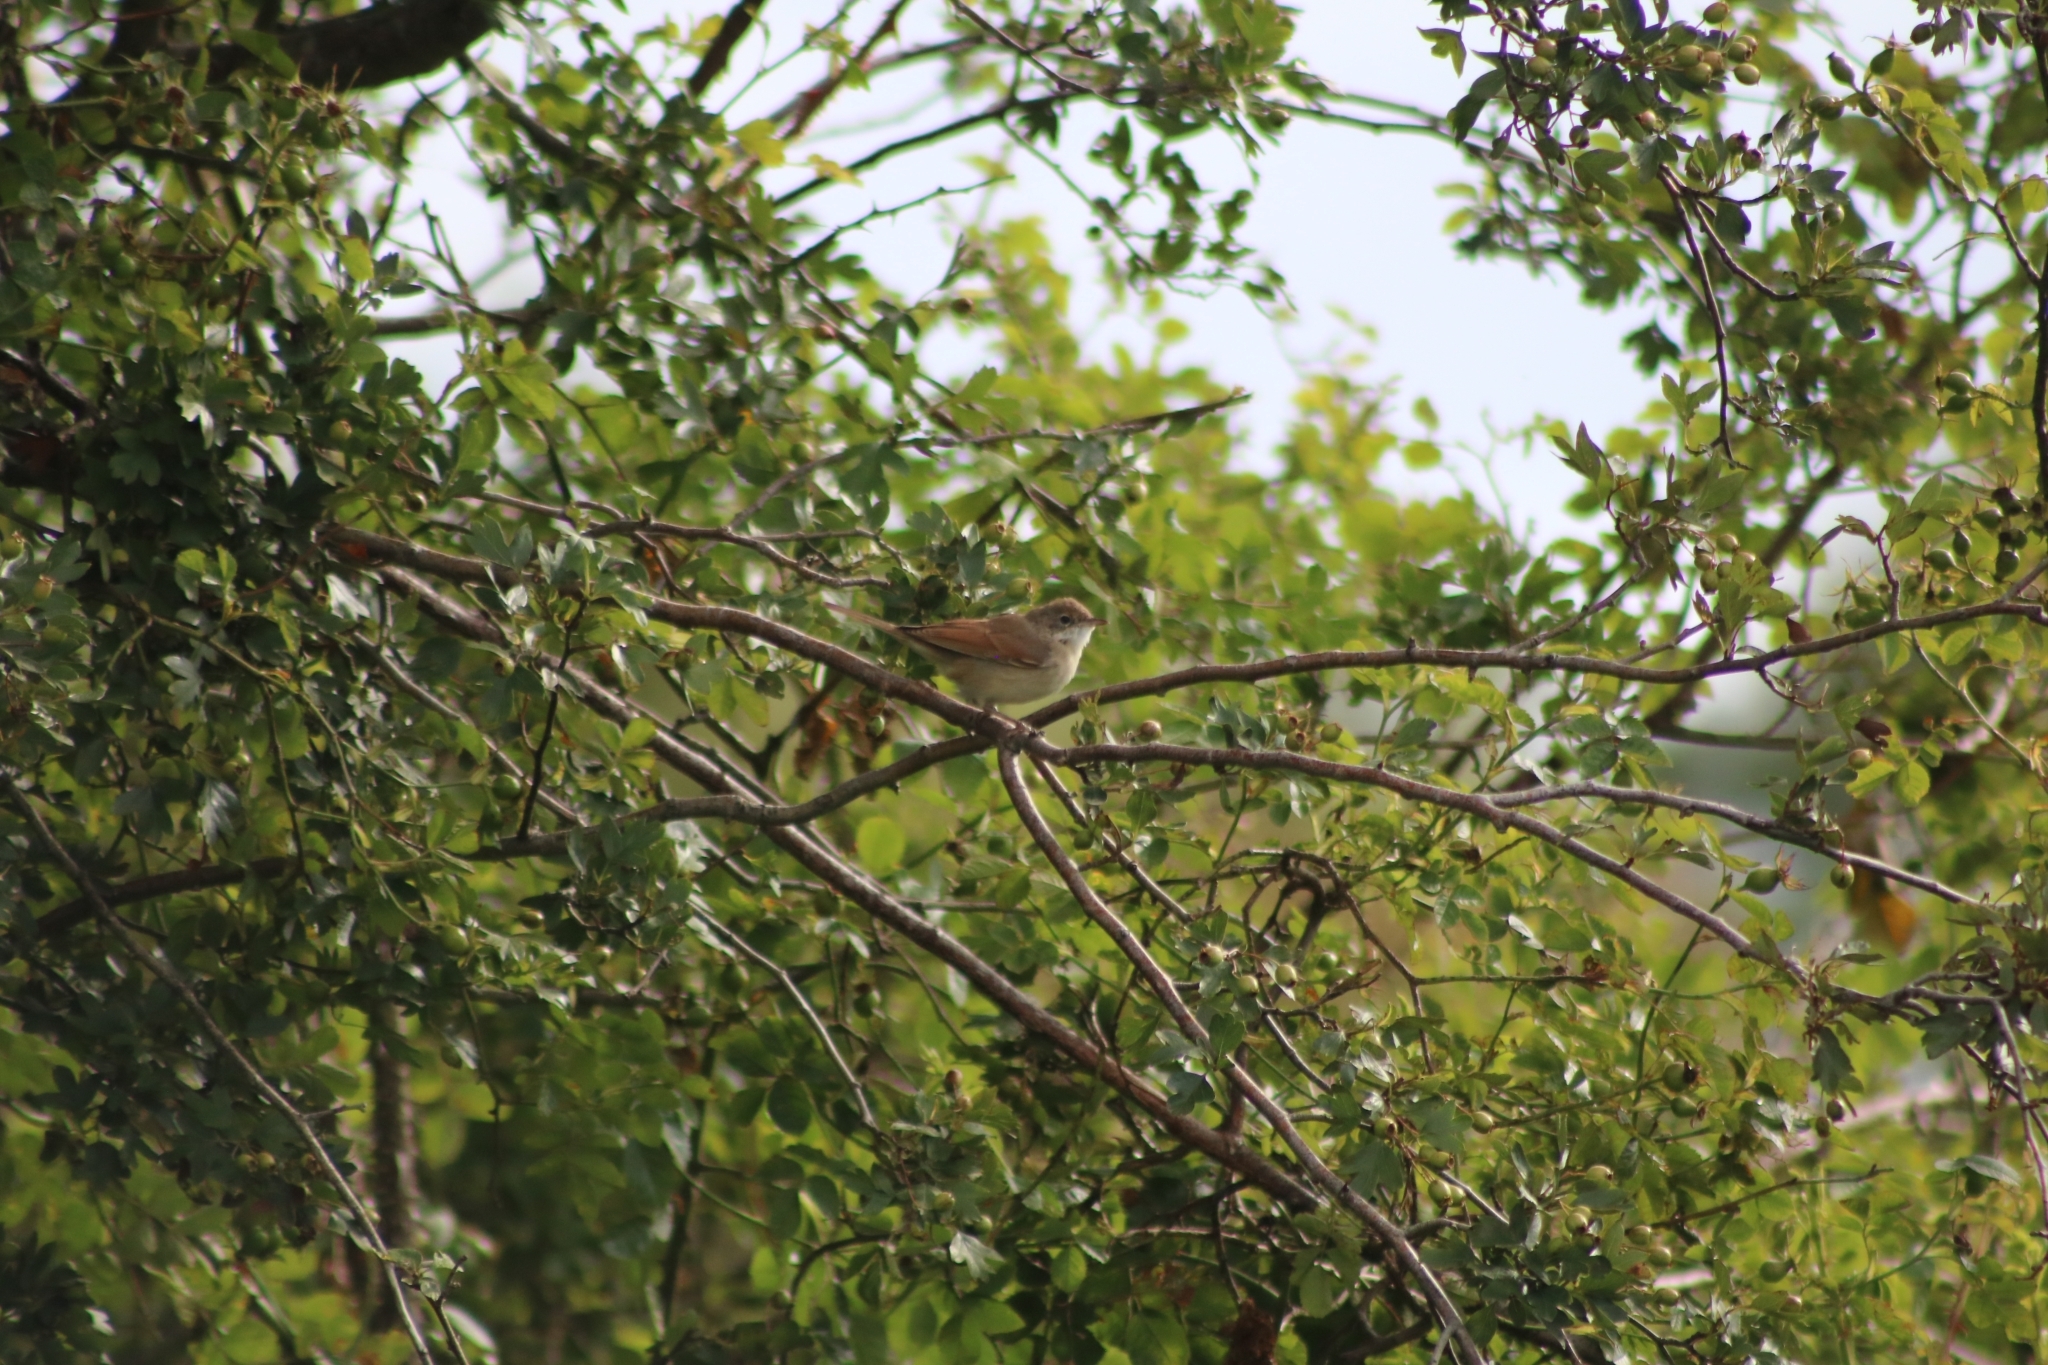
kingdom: Animalia
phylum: Chordata
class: Aves
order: Passeriformes
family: Sylviidae
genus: Sylvia
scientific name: Sylvia communis
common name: Common whitethroat
